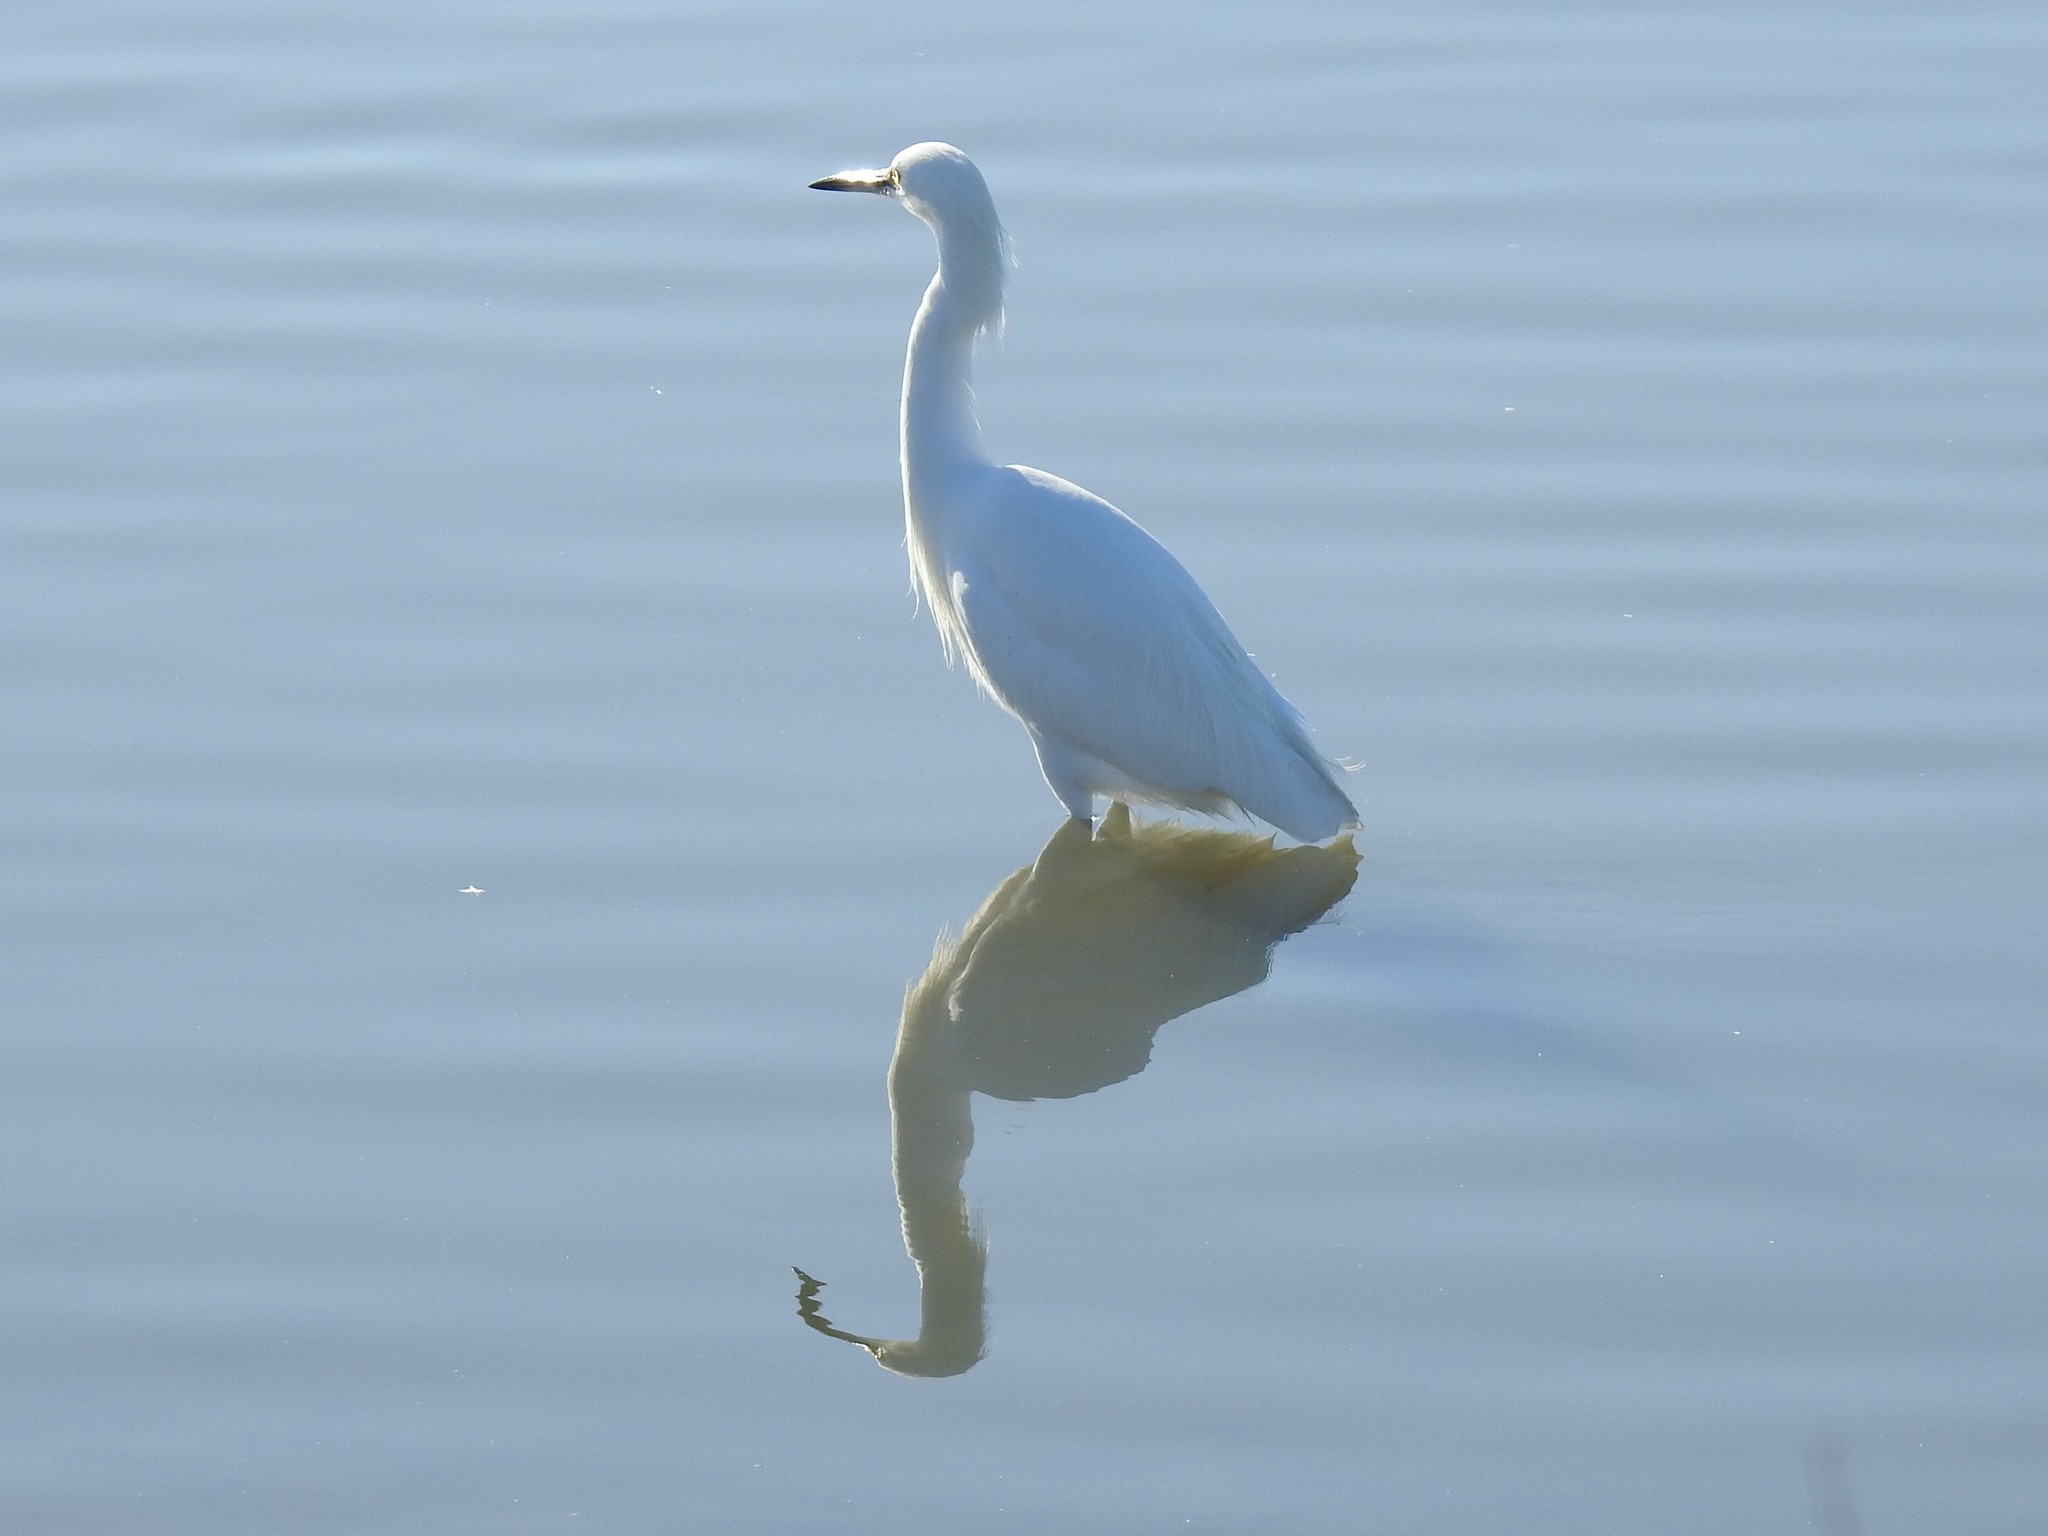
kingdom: Animalia
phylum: Chordata
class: Aves
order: Pelecaniformes
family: Ardeidae
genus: Ardea
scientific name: Ardea alba
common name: Great egret
